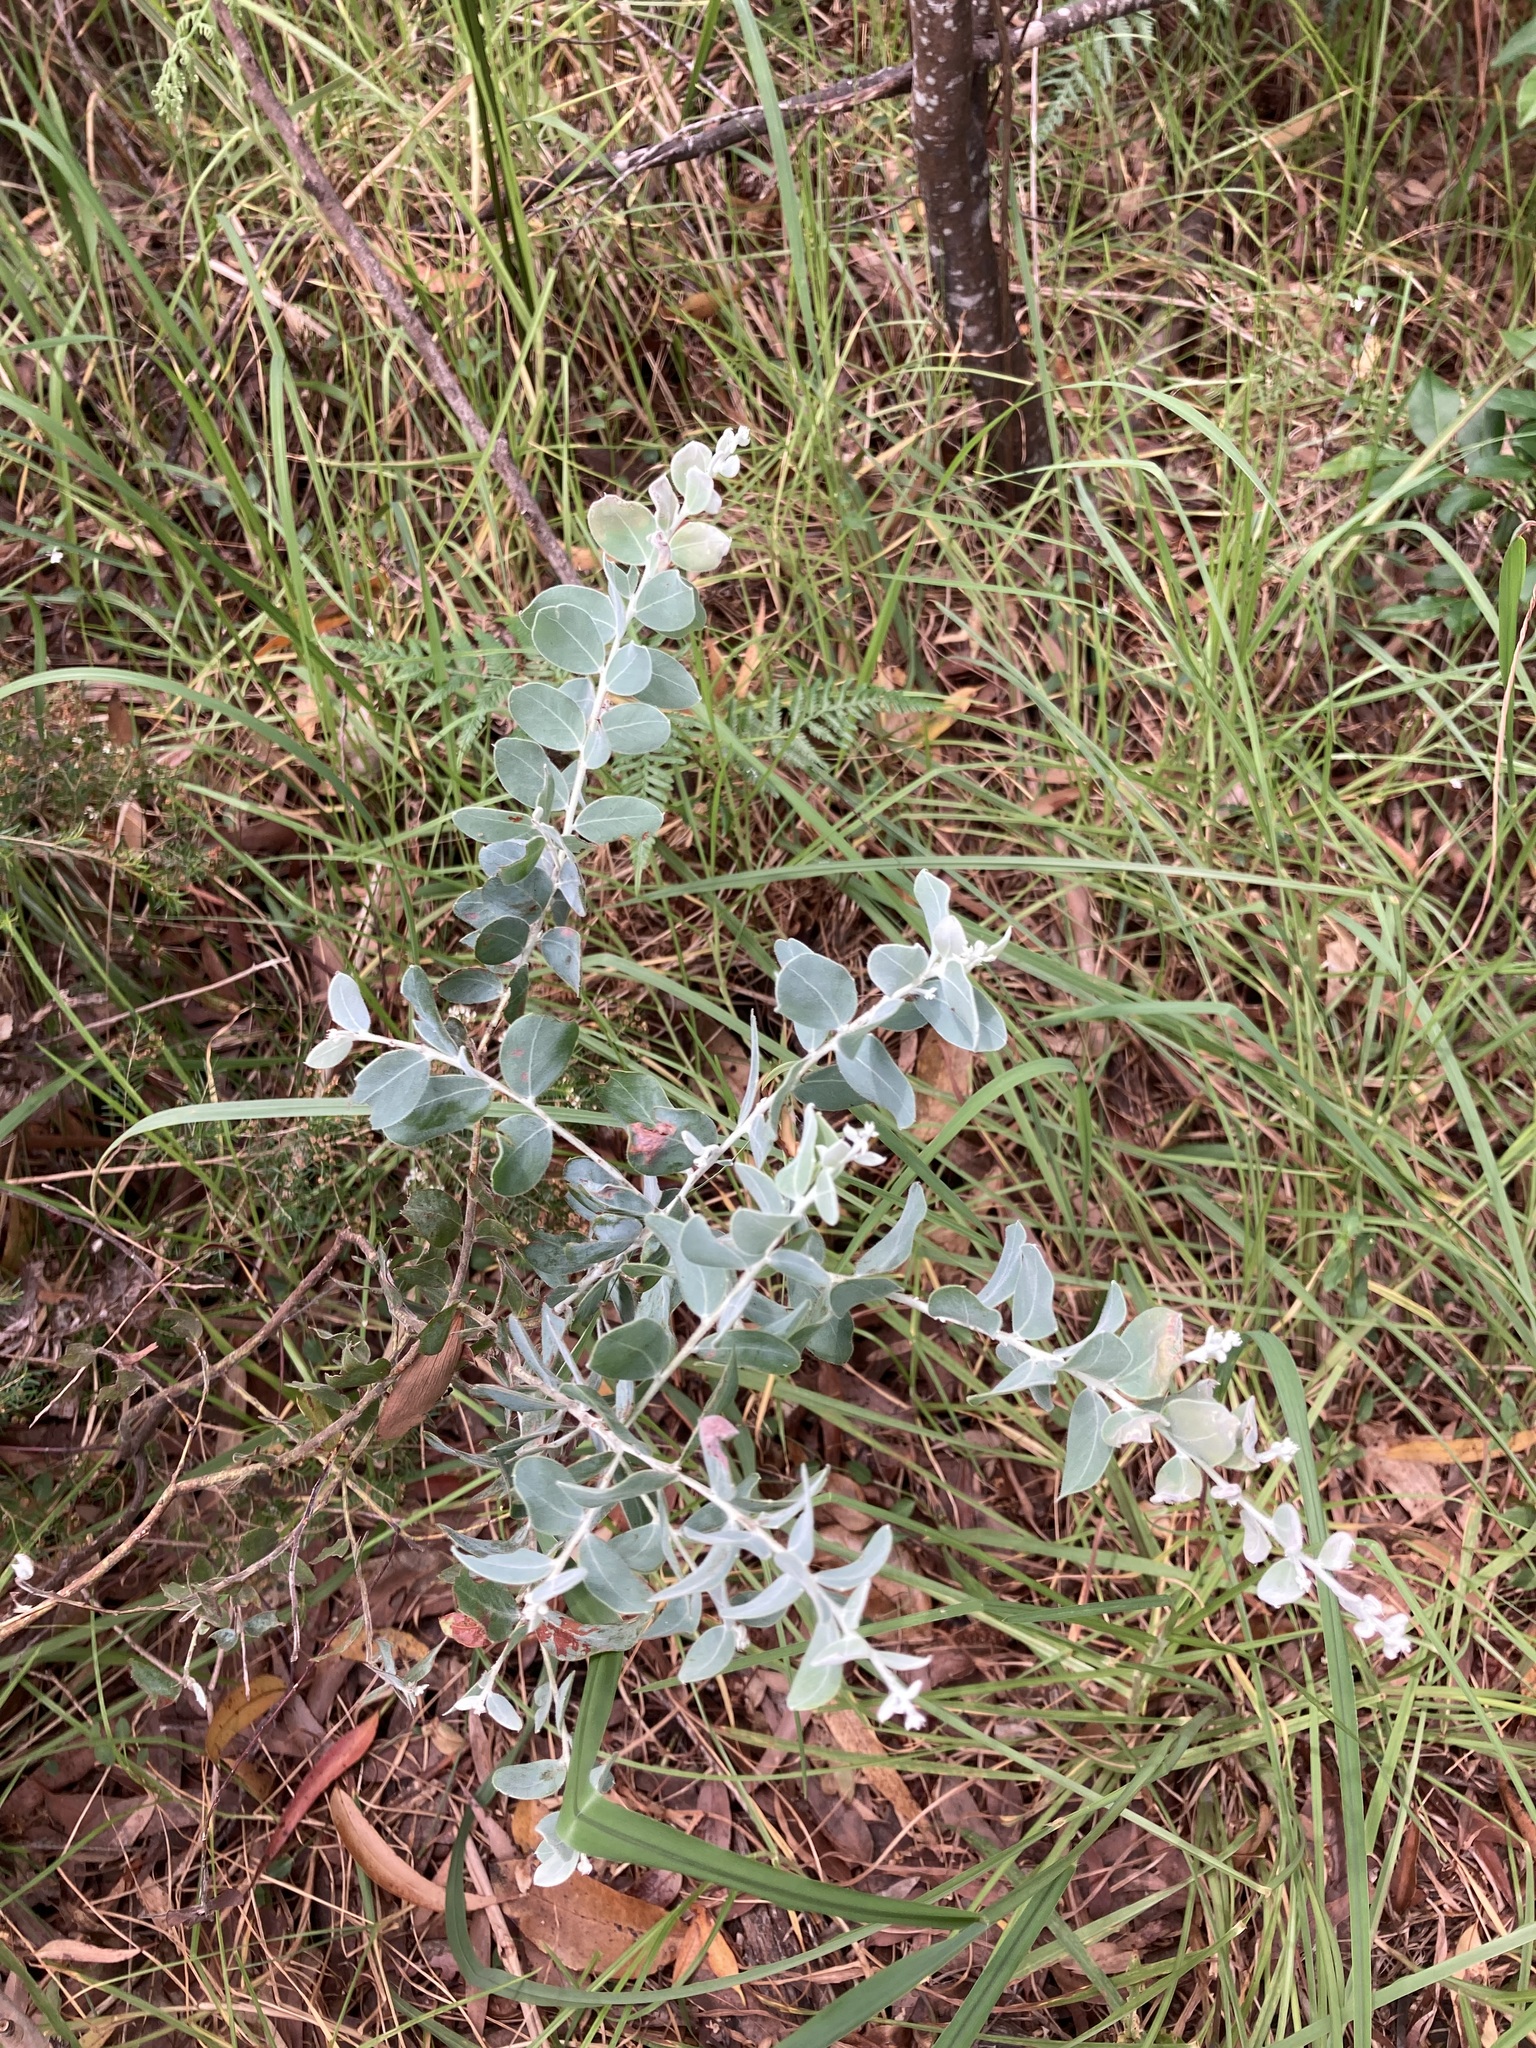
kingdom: Plantae
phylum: Tracheophyta
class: Magnoliopsida
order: Fabales
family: Fabaceae
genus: Acacia
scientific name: Acacia podalyriifolia
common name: Pearl wattle
